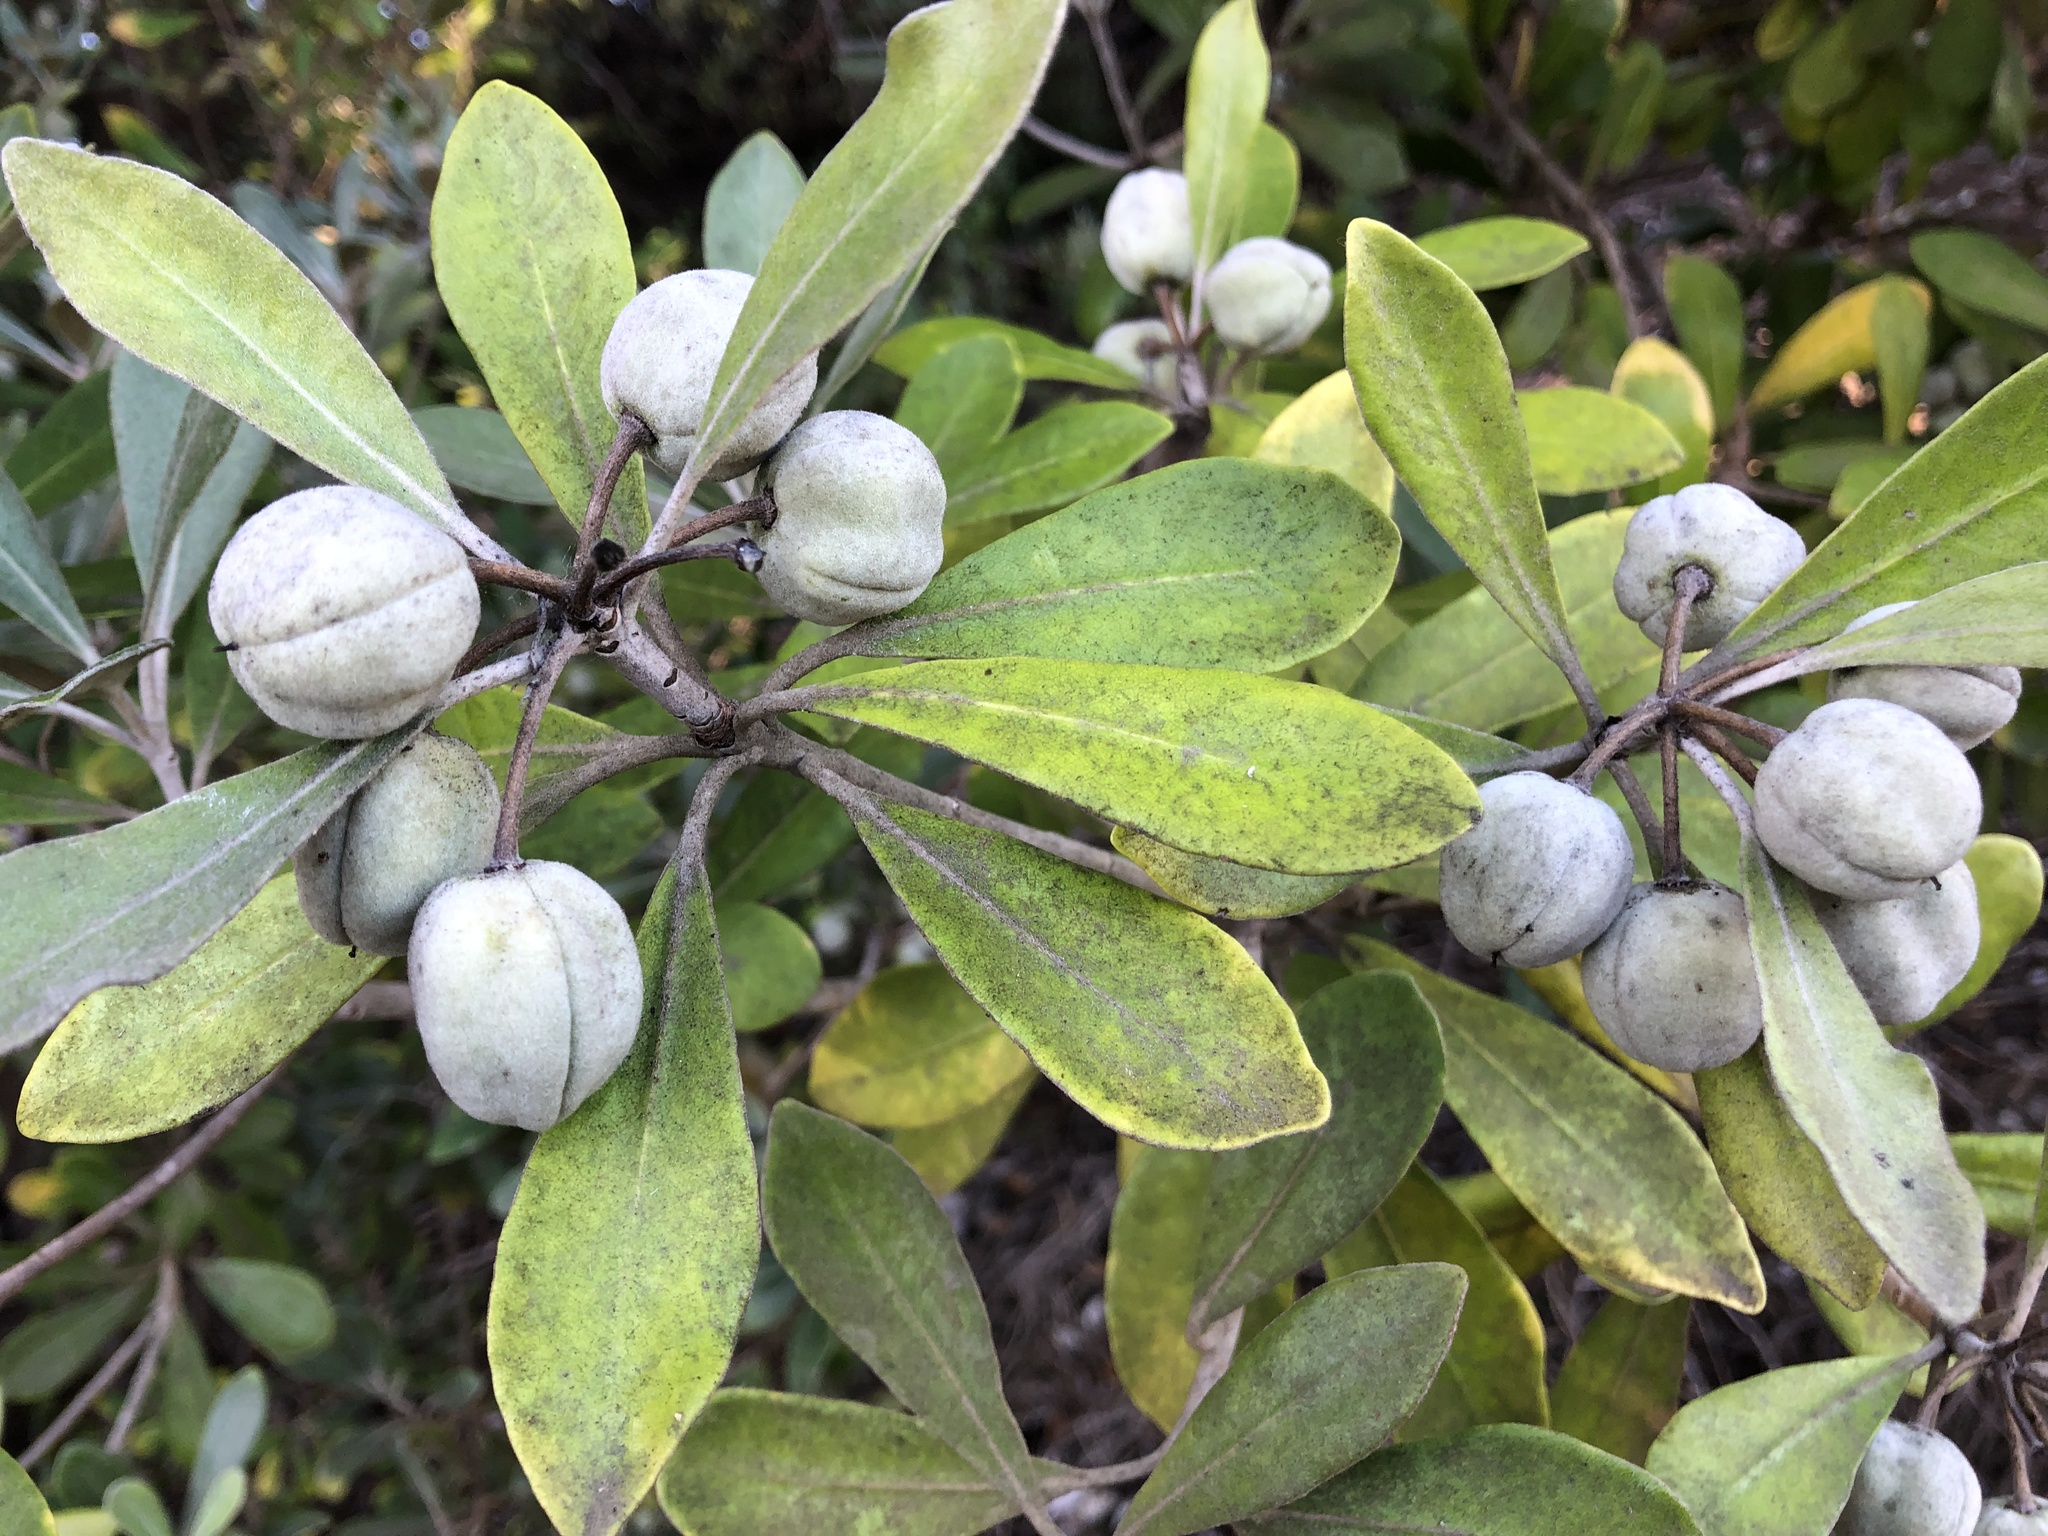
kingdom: Plantae
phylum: Tracheophyta
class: Magnoliopsida
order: Apiales
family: Pittosporaceae
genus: Pittosporum
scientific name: Pittosporum crassifolium
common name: Karo
